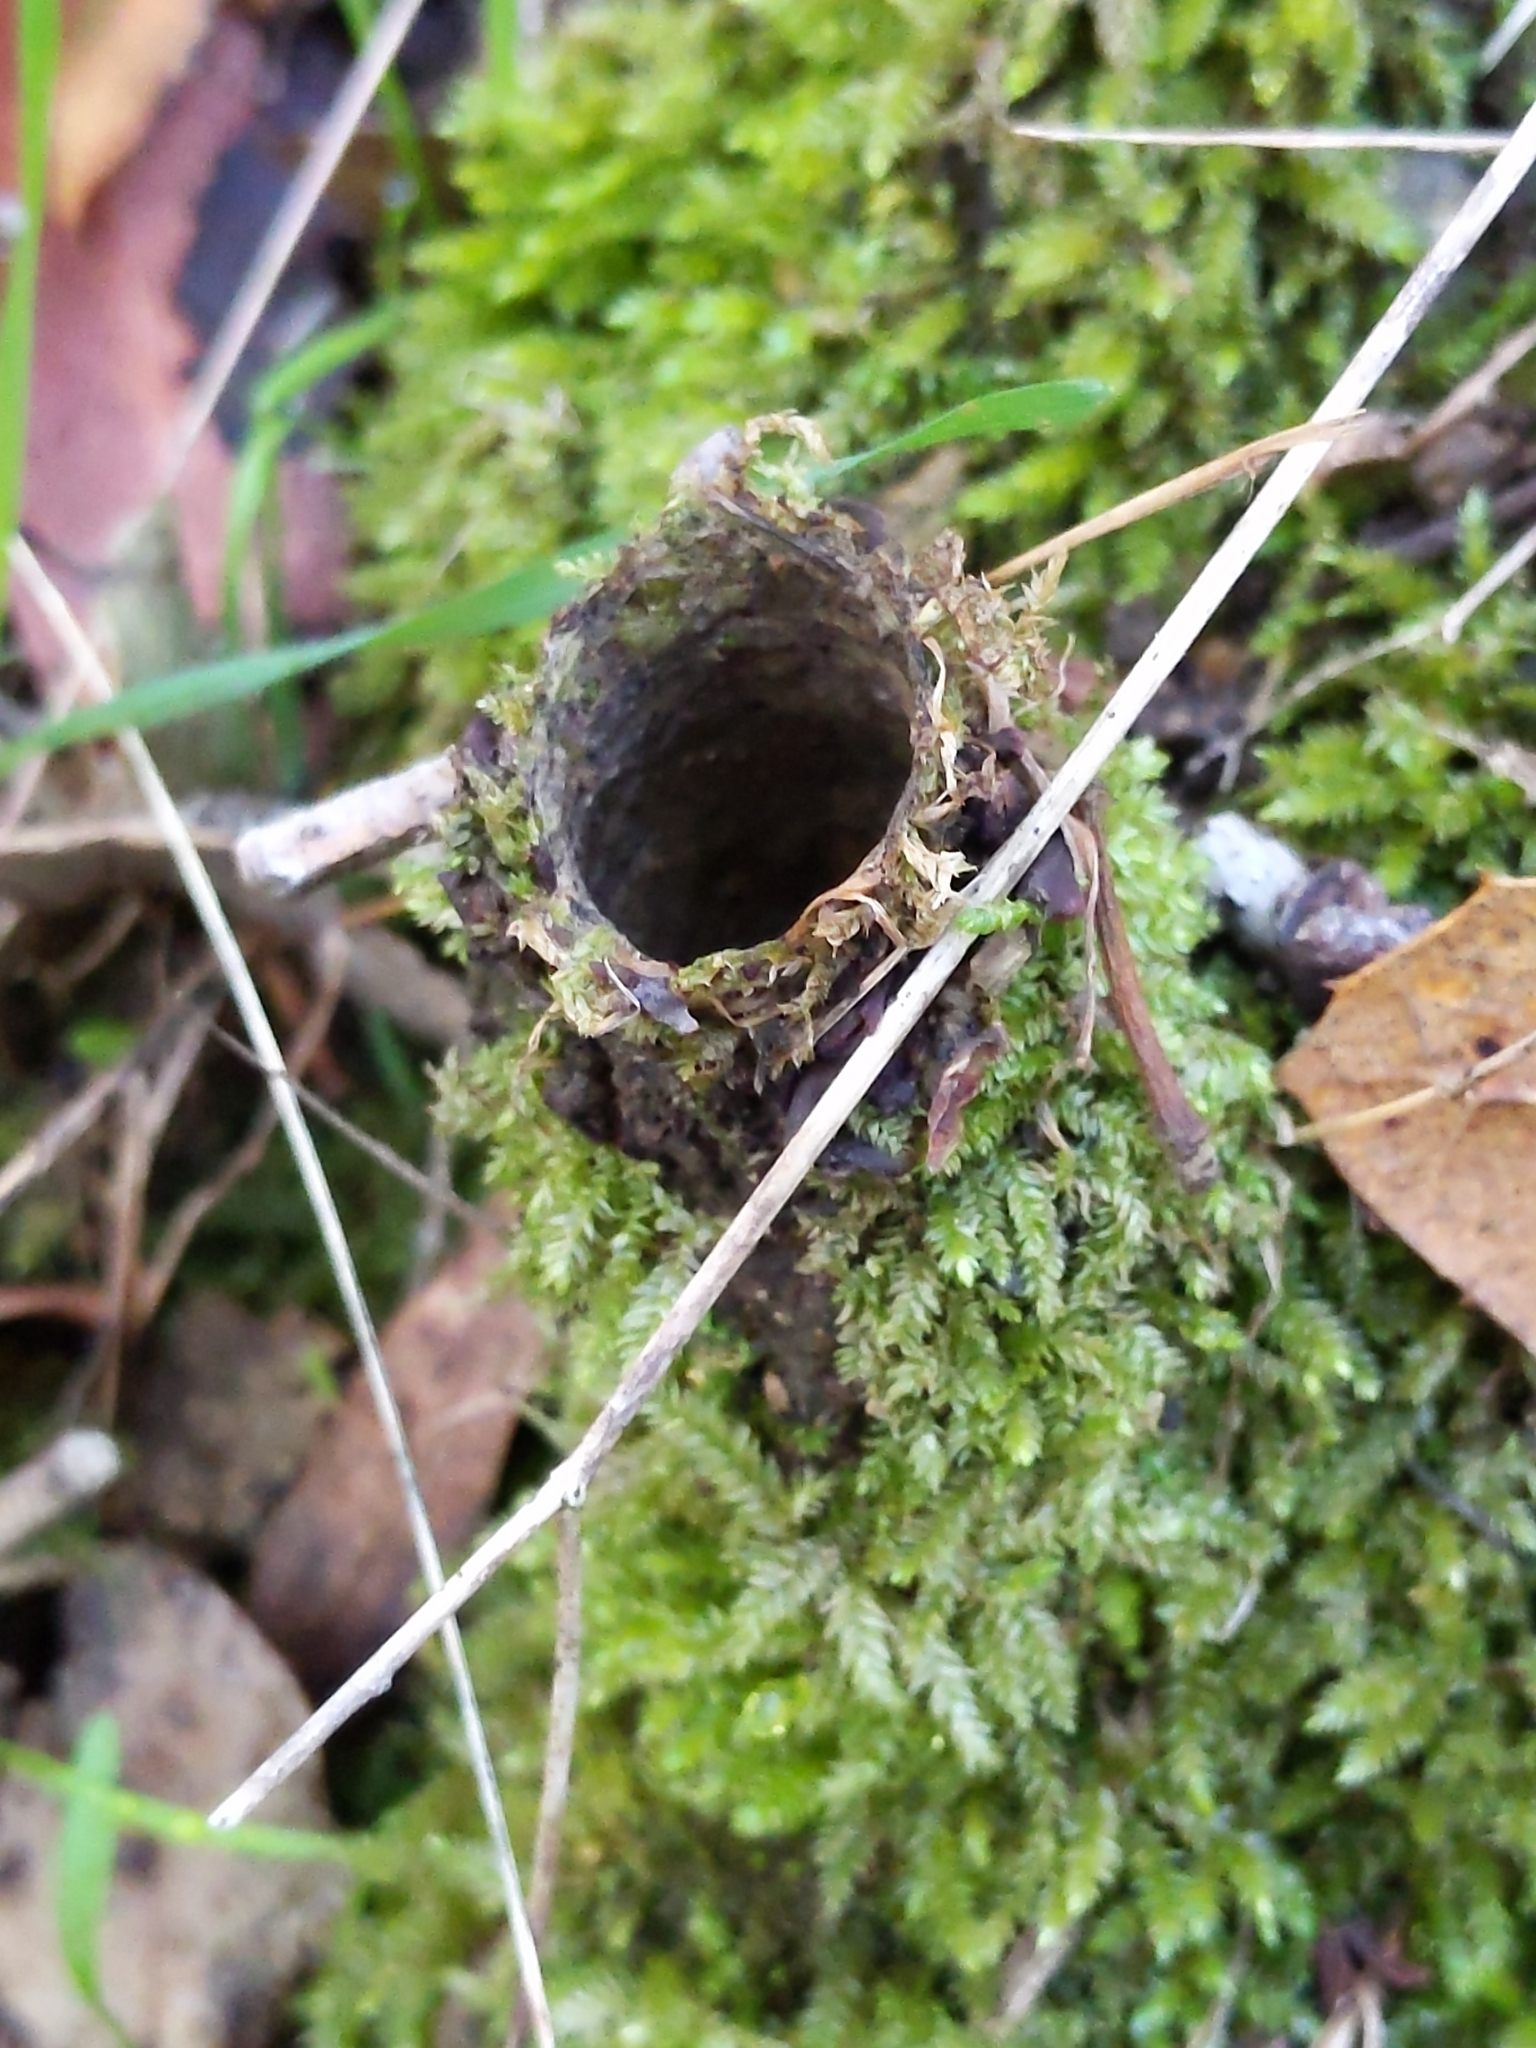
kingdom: Animalia
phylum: Arthropoda
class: Arachnida
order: Araneae
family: Antrodiaetidae
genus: Atypoides
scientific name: Atypoides riversi
